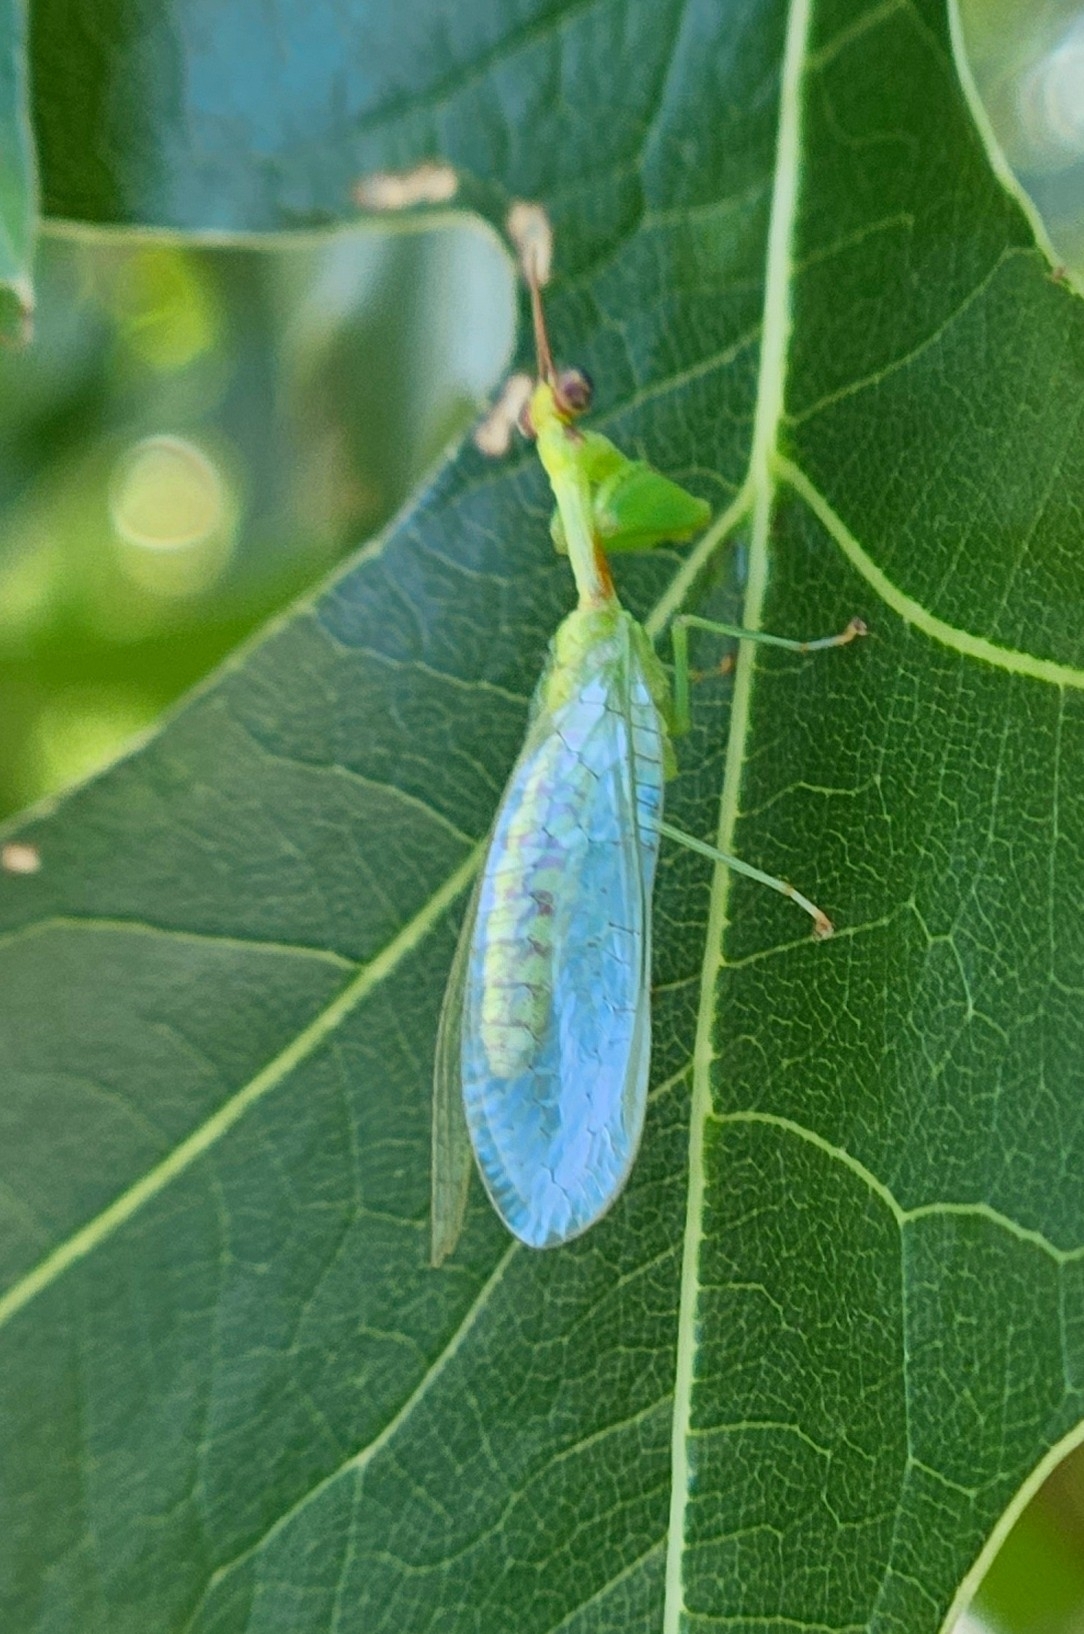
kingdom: Animalia
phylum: Arthropoda
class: Insecta
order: Neuroptera
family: Mantispidae
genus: Zeugomantispa
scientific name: Zeugomantispa minuta
